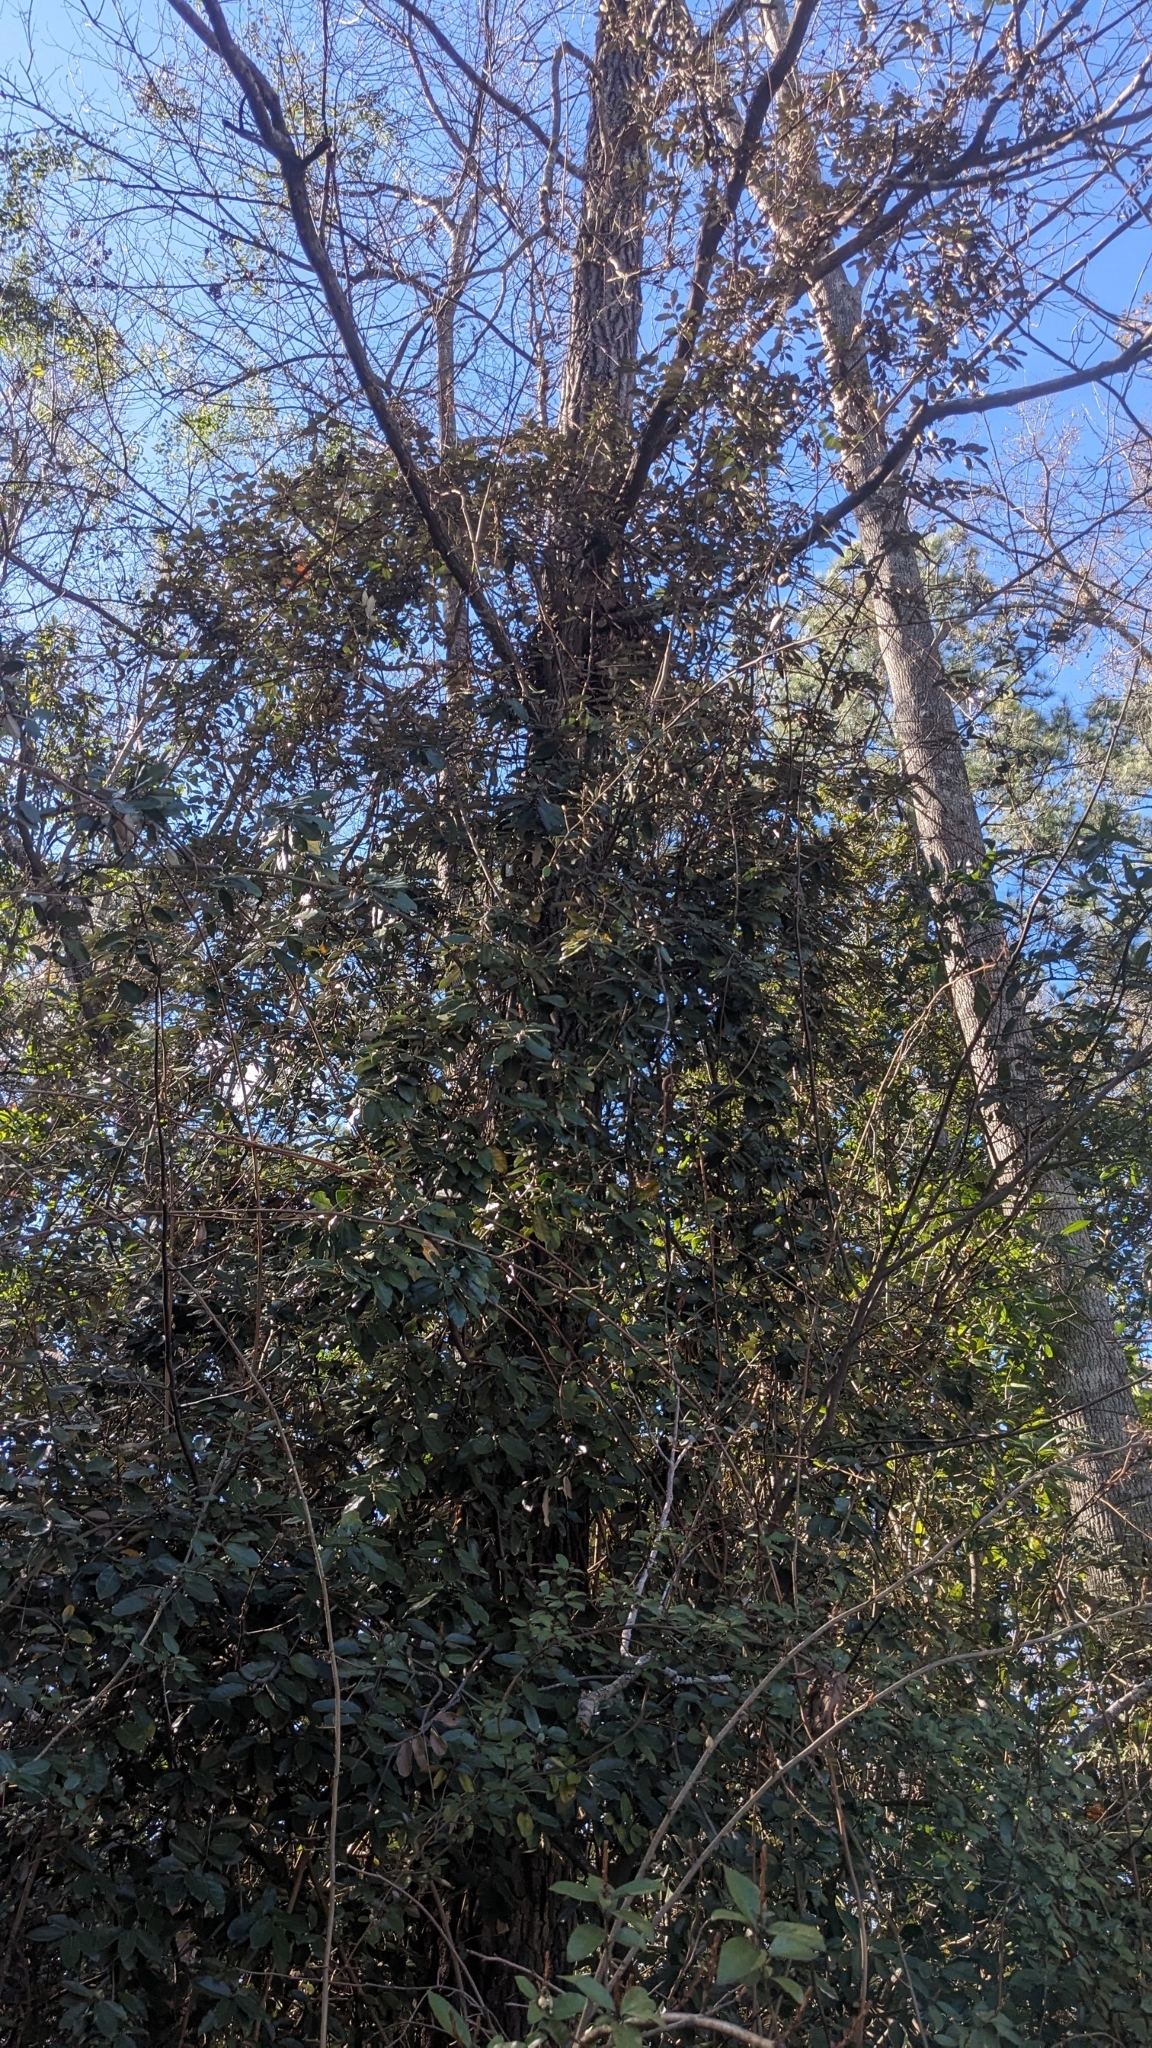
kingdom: Plantae
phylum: Tracheophyta
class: Magnoliopsida
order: Rosales
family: Elaeagnaceae
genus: Elaeagnus
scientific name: Elaeagnus pungens
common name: Spiny oleaster
